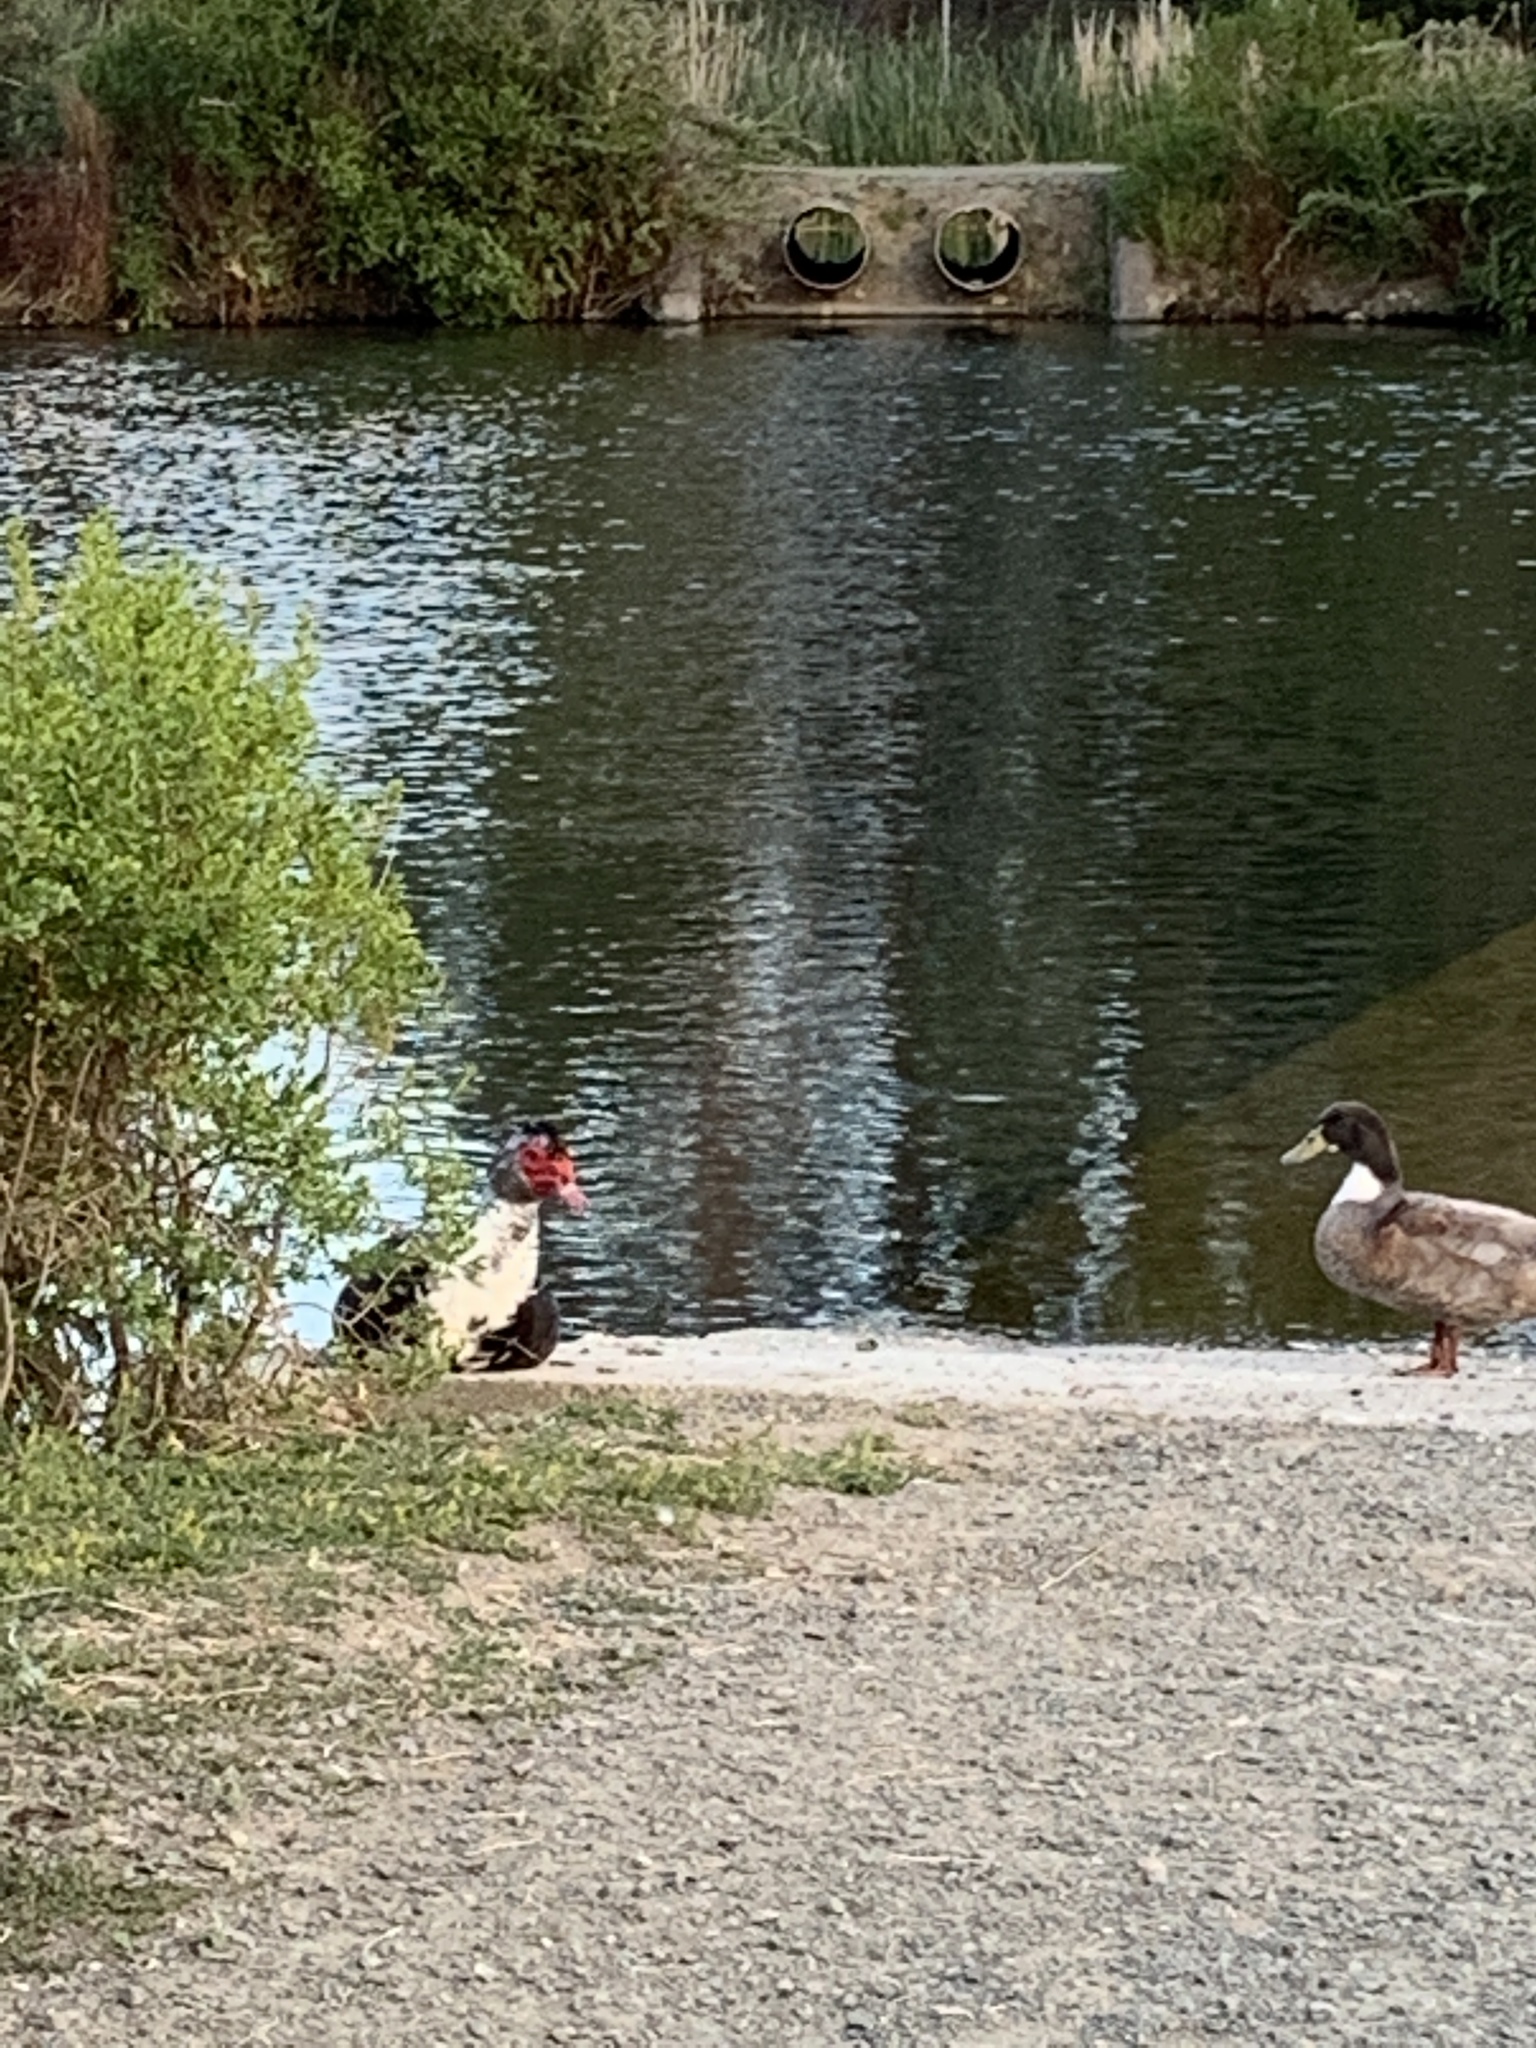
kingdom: Animalia
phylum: Chordata
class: Aves
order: Anseriformes
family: Anatidae
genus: Cairina
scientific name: Cairina moschata
